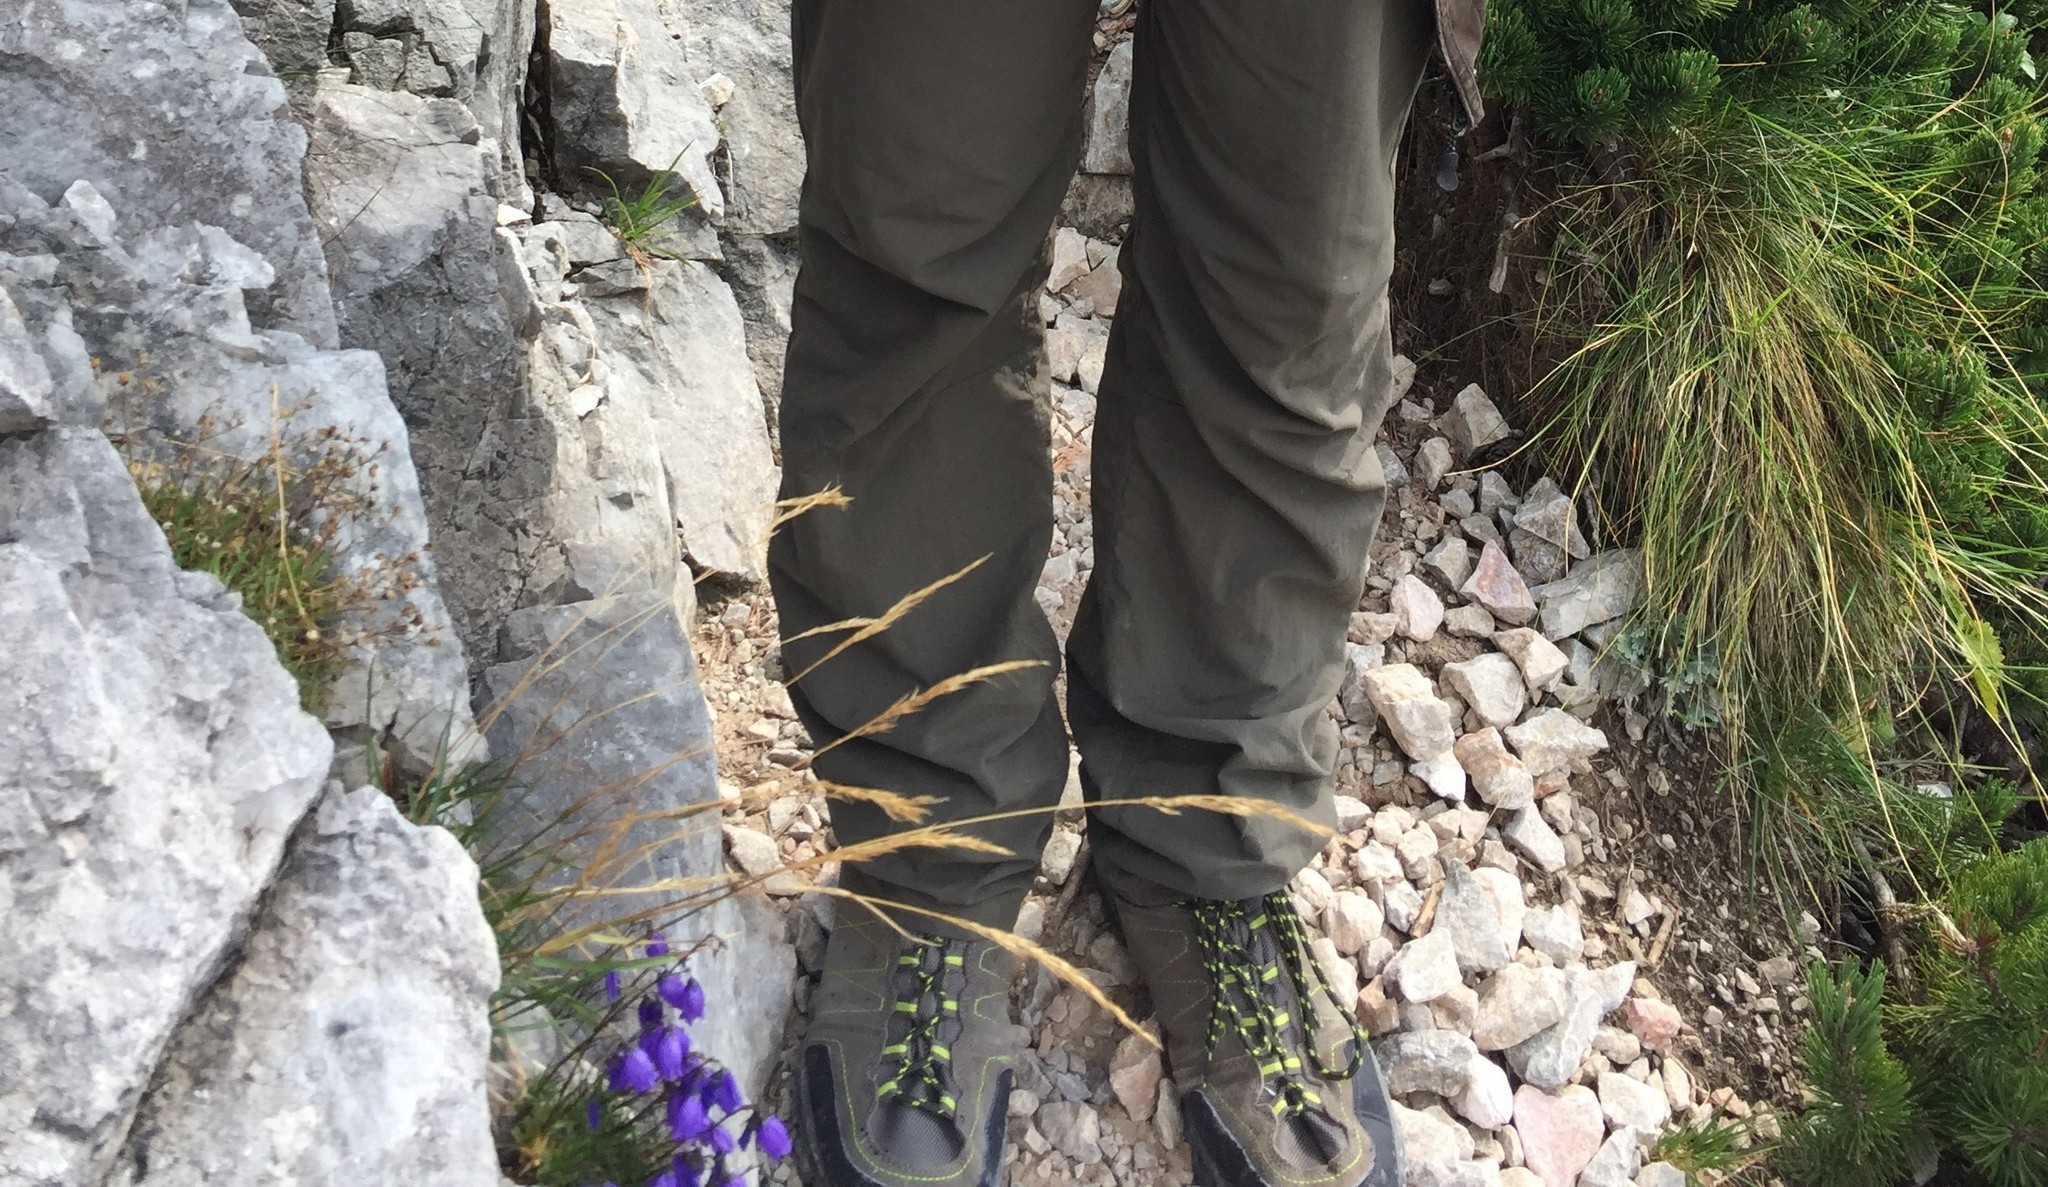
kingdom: Plantae
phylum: Tracheophyta
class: Magnoliopsida
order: Asterales
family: Campanulaceae
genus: Campanula
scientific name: Campanula cespitosa
